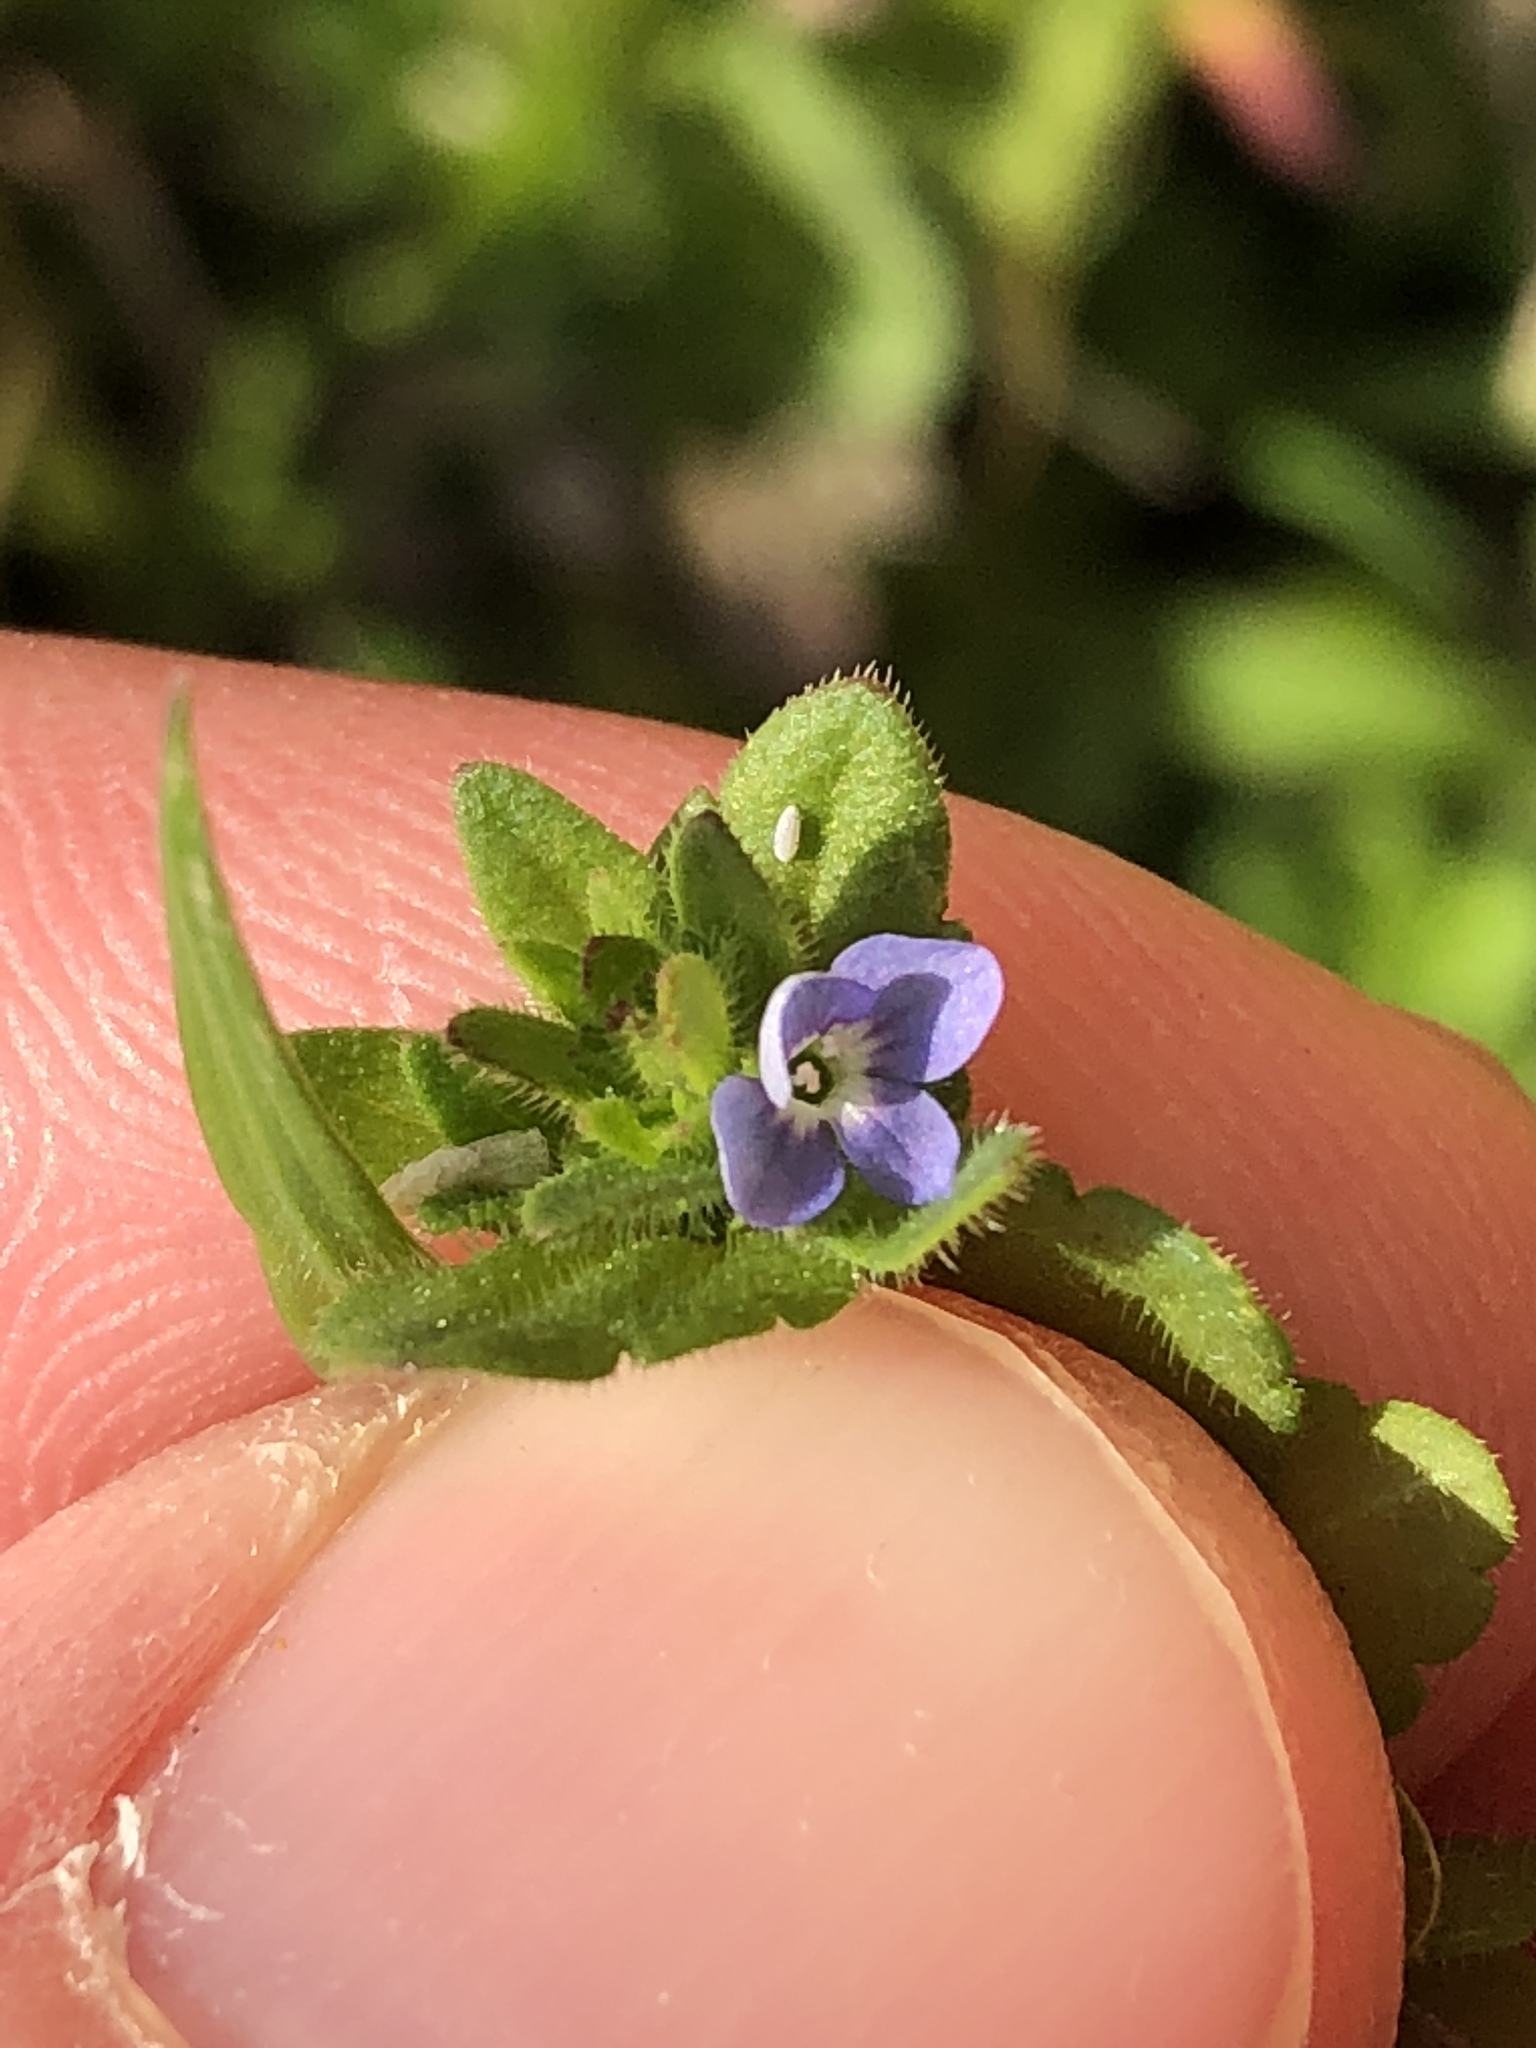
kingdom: Plantae
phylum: Tracheophyta
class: Magnoliopsida
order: Lamiales
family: Plantaginaceae
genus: Veronica
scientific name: Veronica arvensis
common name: Corn speedwell
